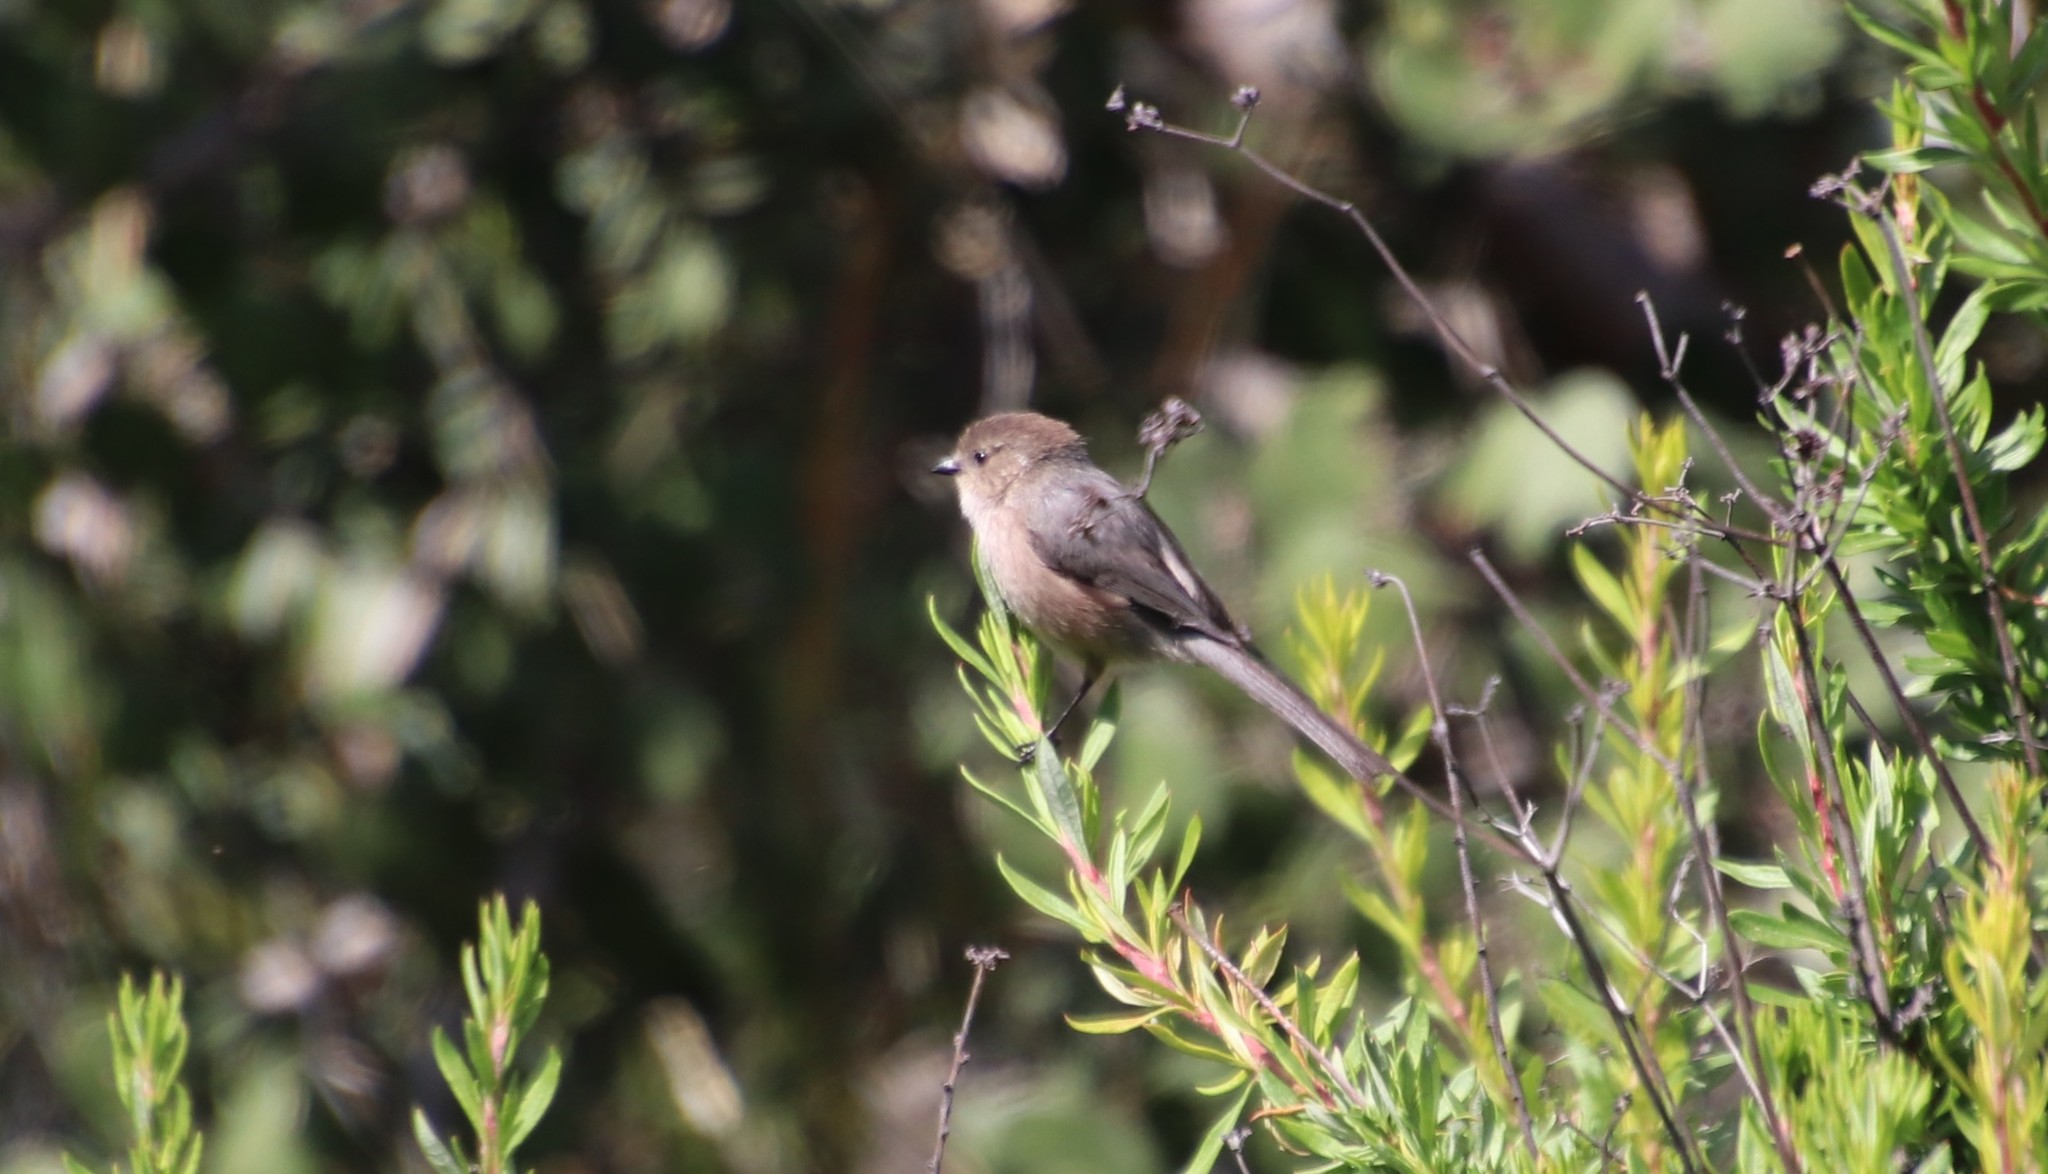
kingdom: Animalia
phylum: Chordata
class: Aves
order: Passeriformes
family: Aegithalidae
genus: Psaltriparus
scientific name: Psaltriparus minimus
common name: American bushtit
